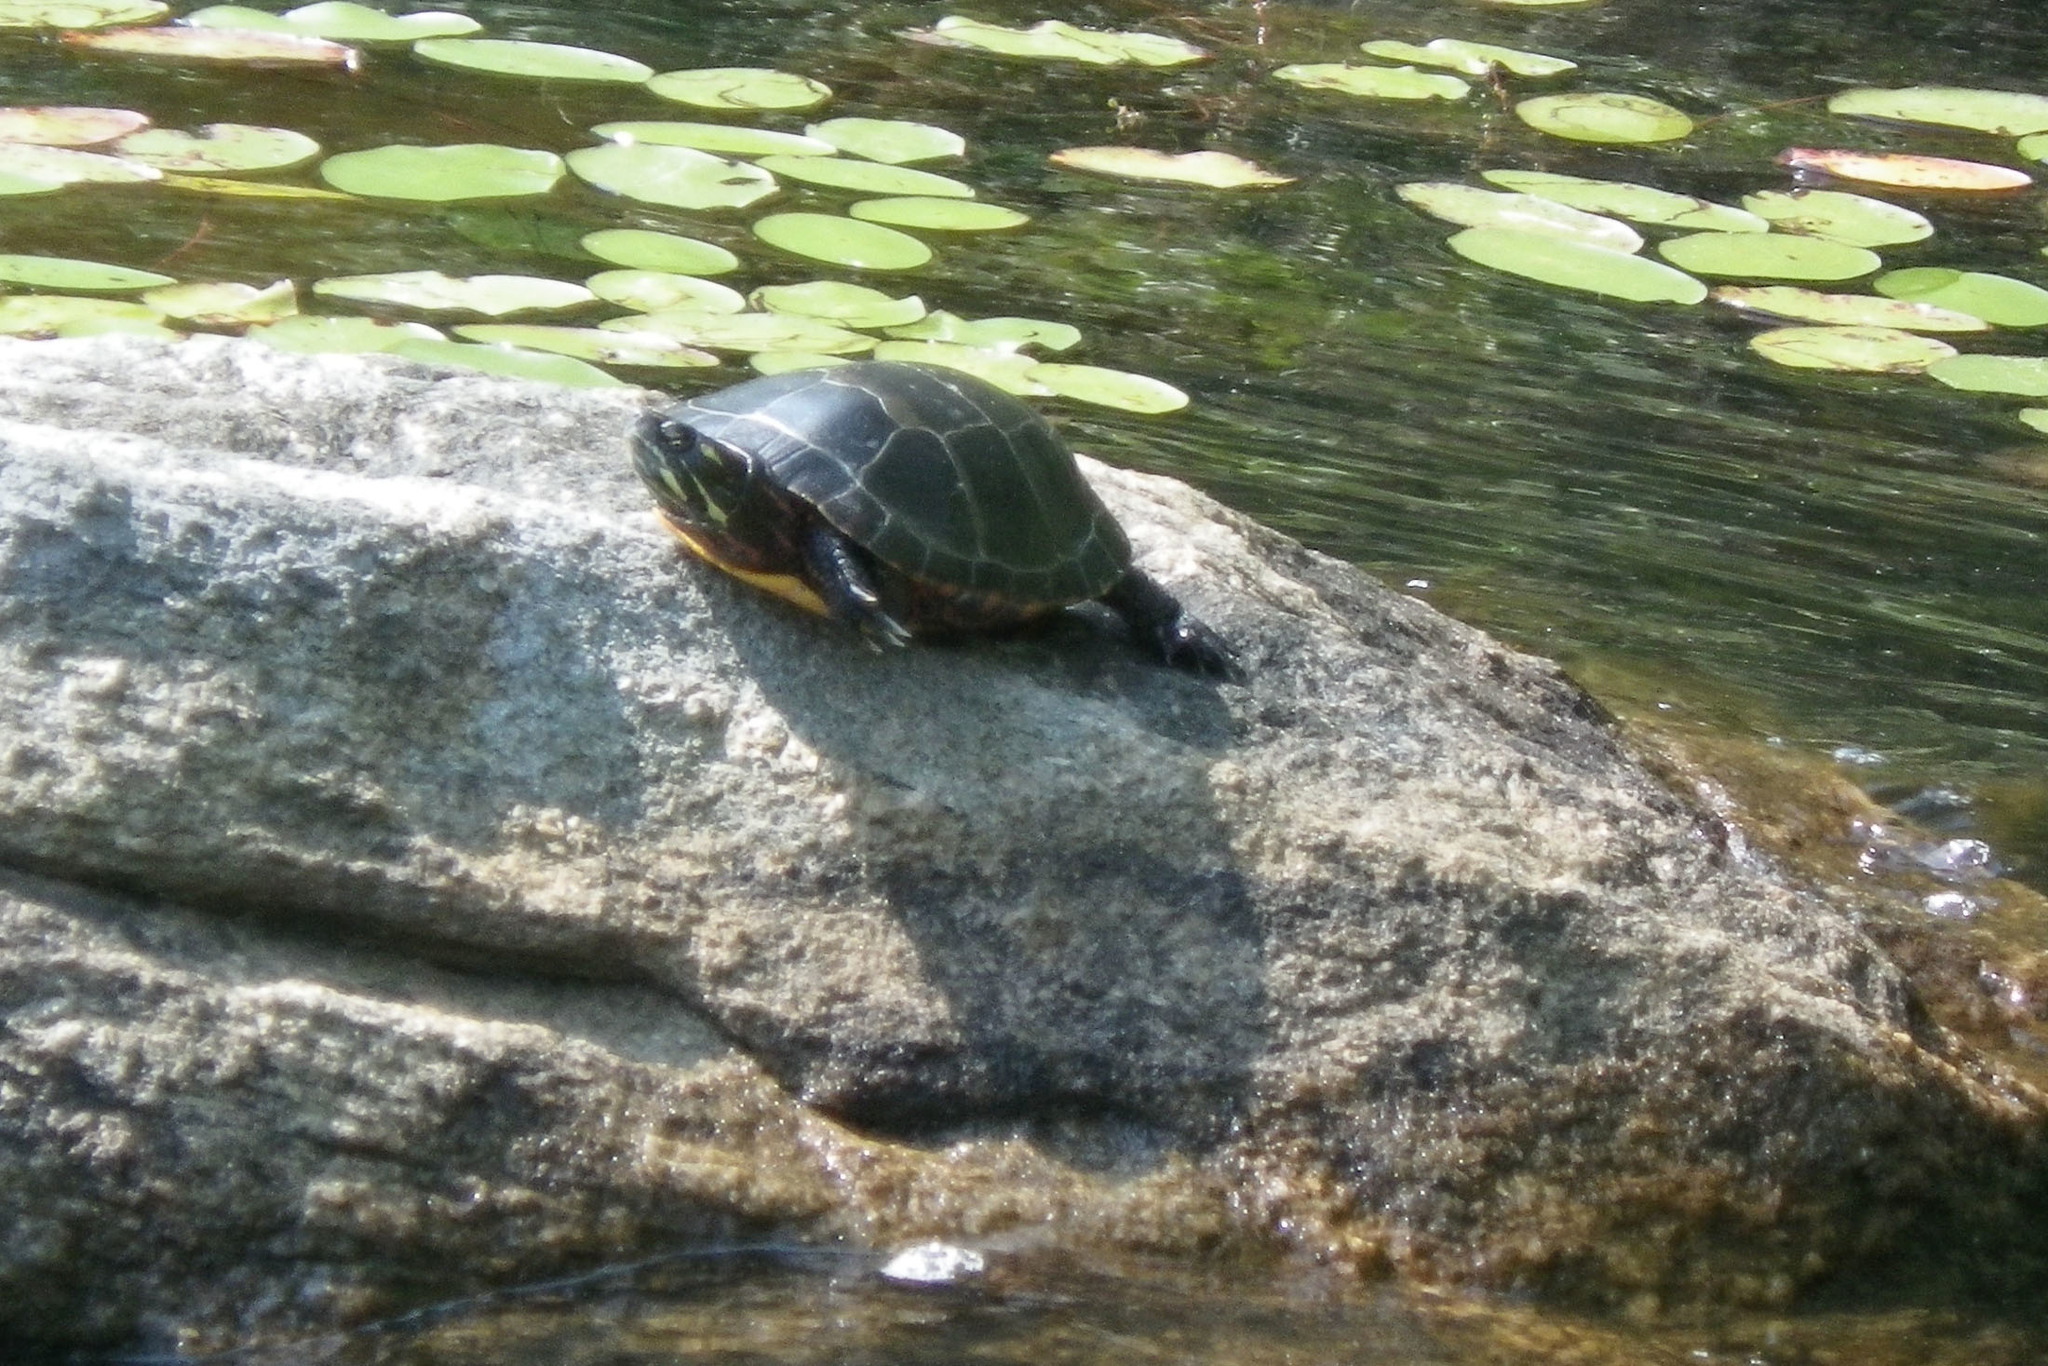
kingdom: Animalia
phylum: Chordata
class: Testudines
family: Emydidae
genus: Chrysemys
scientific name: Chrysemys picta
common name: Painted turtle
